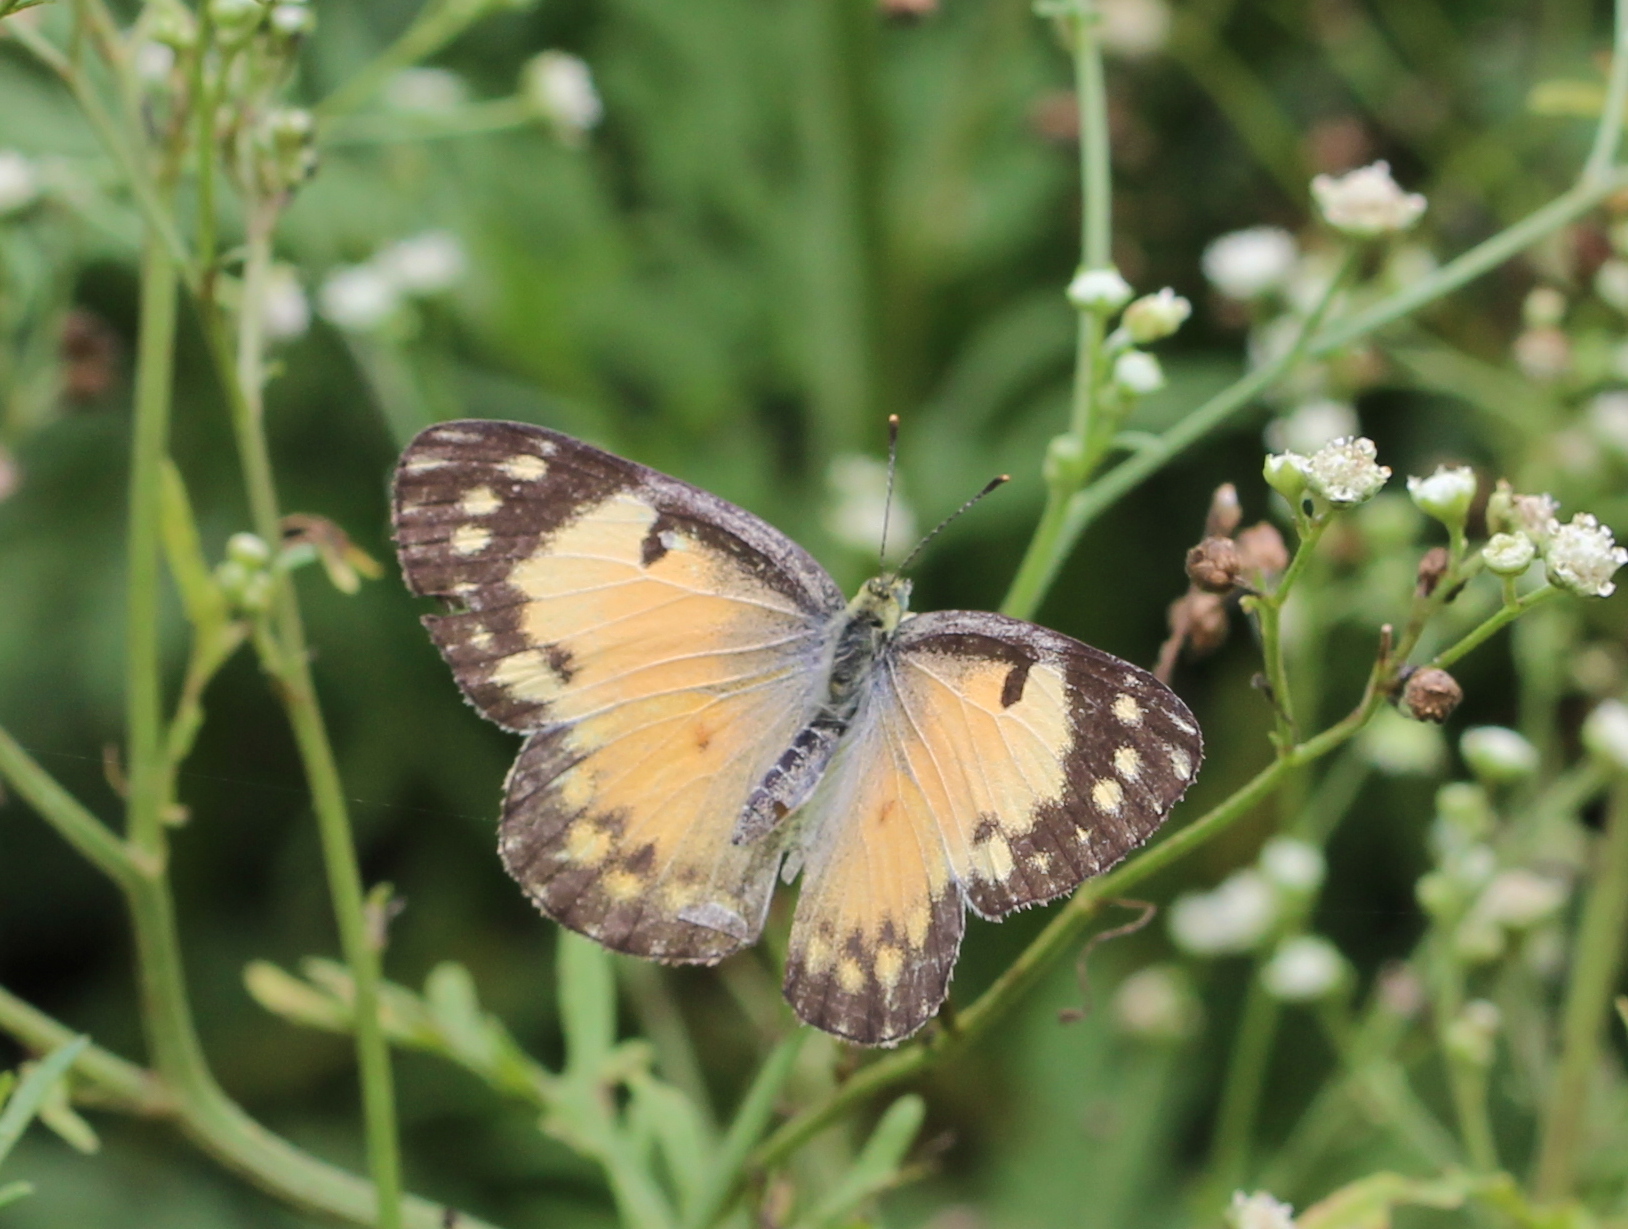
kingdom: Animalia
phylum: Arthropoda
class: Insecta
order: Lepidoptera
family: Pieridae
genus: Colotis
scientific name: Colotis amata
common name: Small salmon arab
